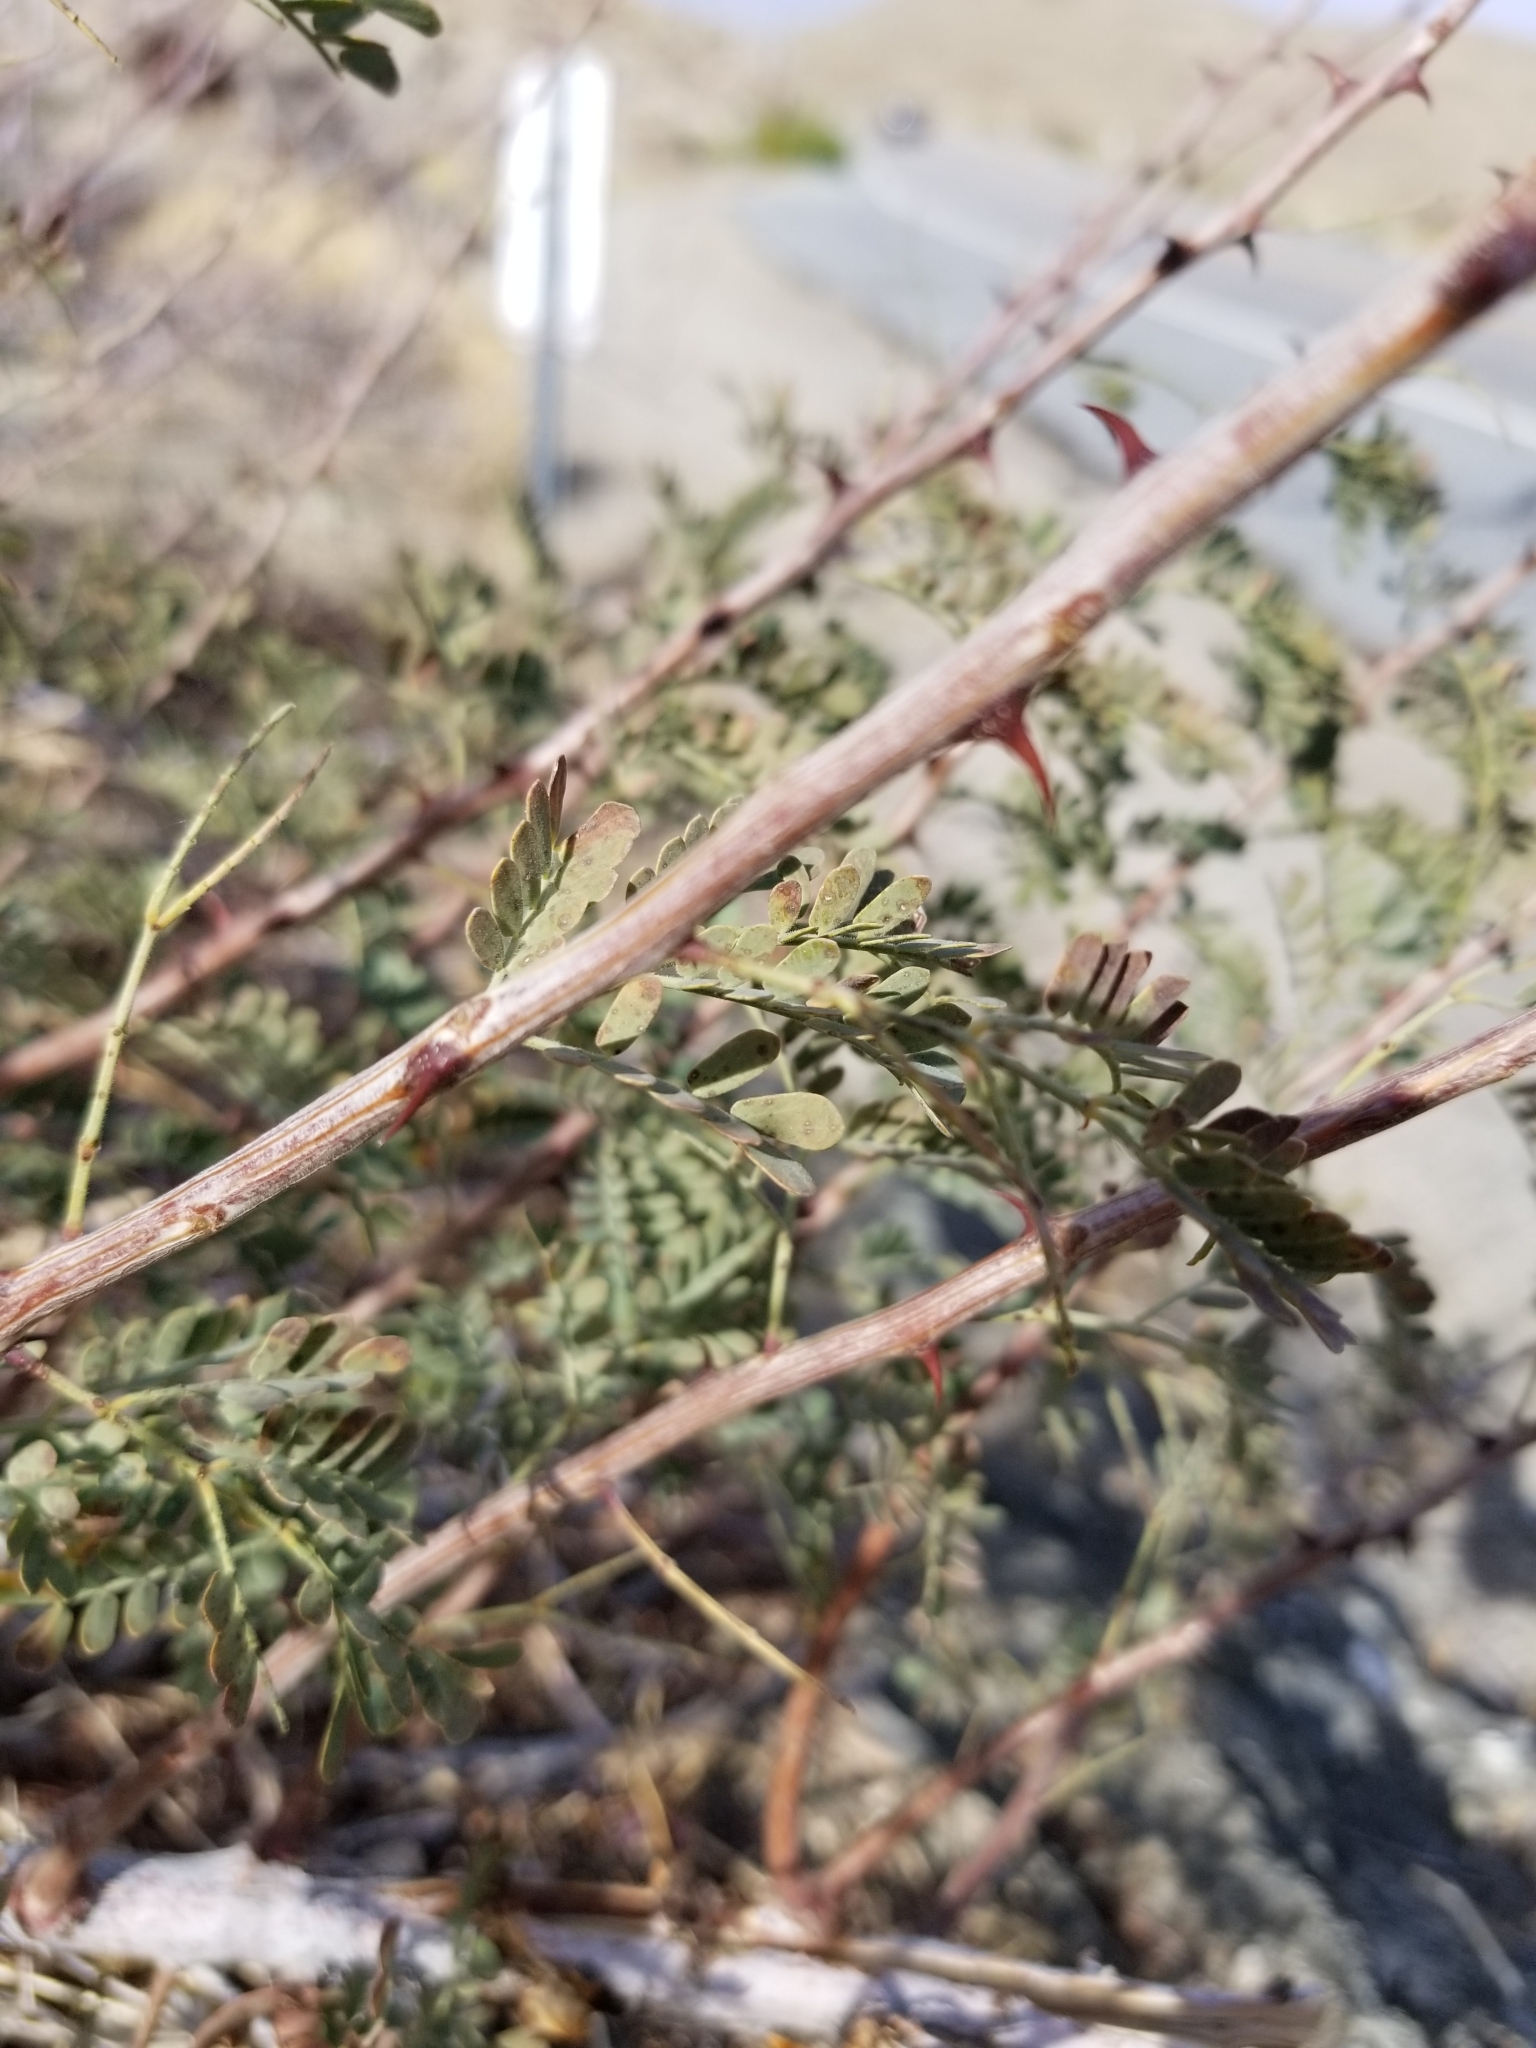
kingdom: Plantae
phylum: Tracheophyta
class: Magnoliopsida
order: Fabales
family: Fabaceae
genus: Senegalia
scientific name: Senegalia greggii
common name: Texas-mimosa
